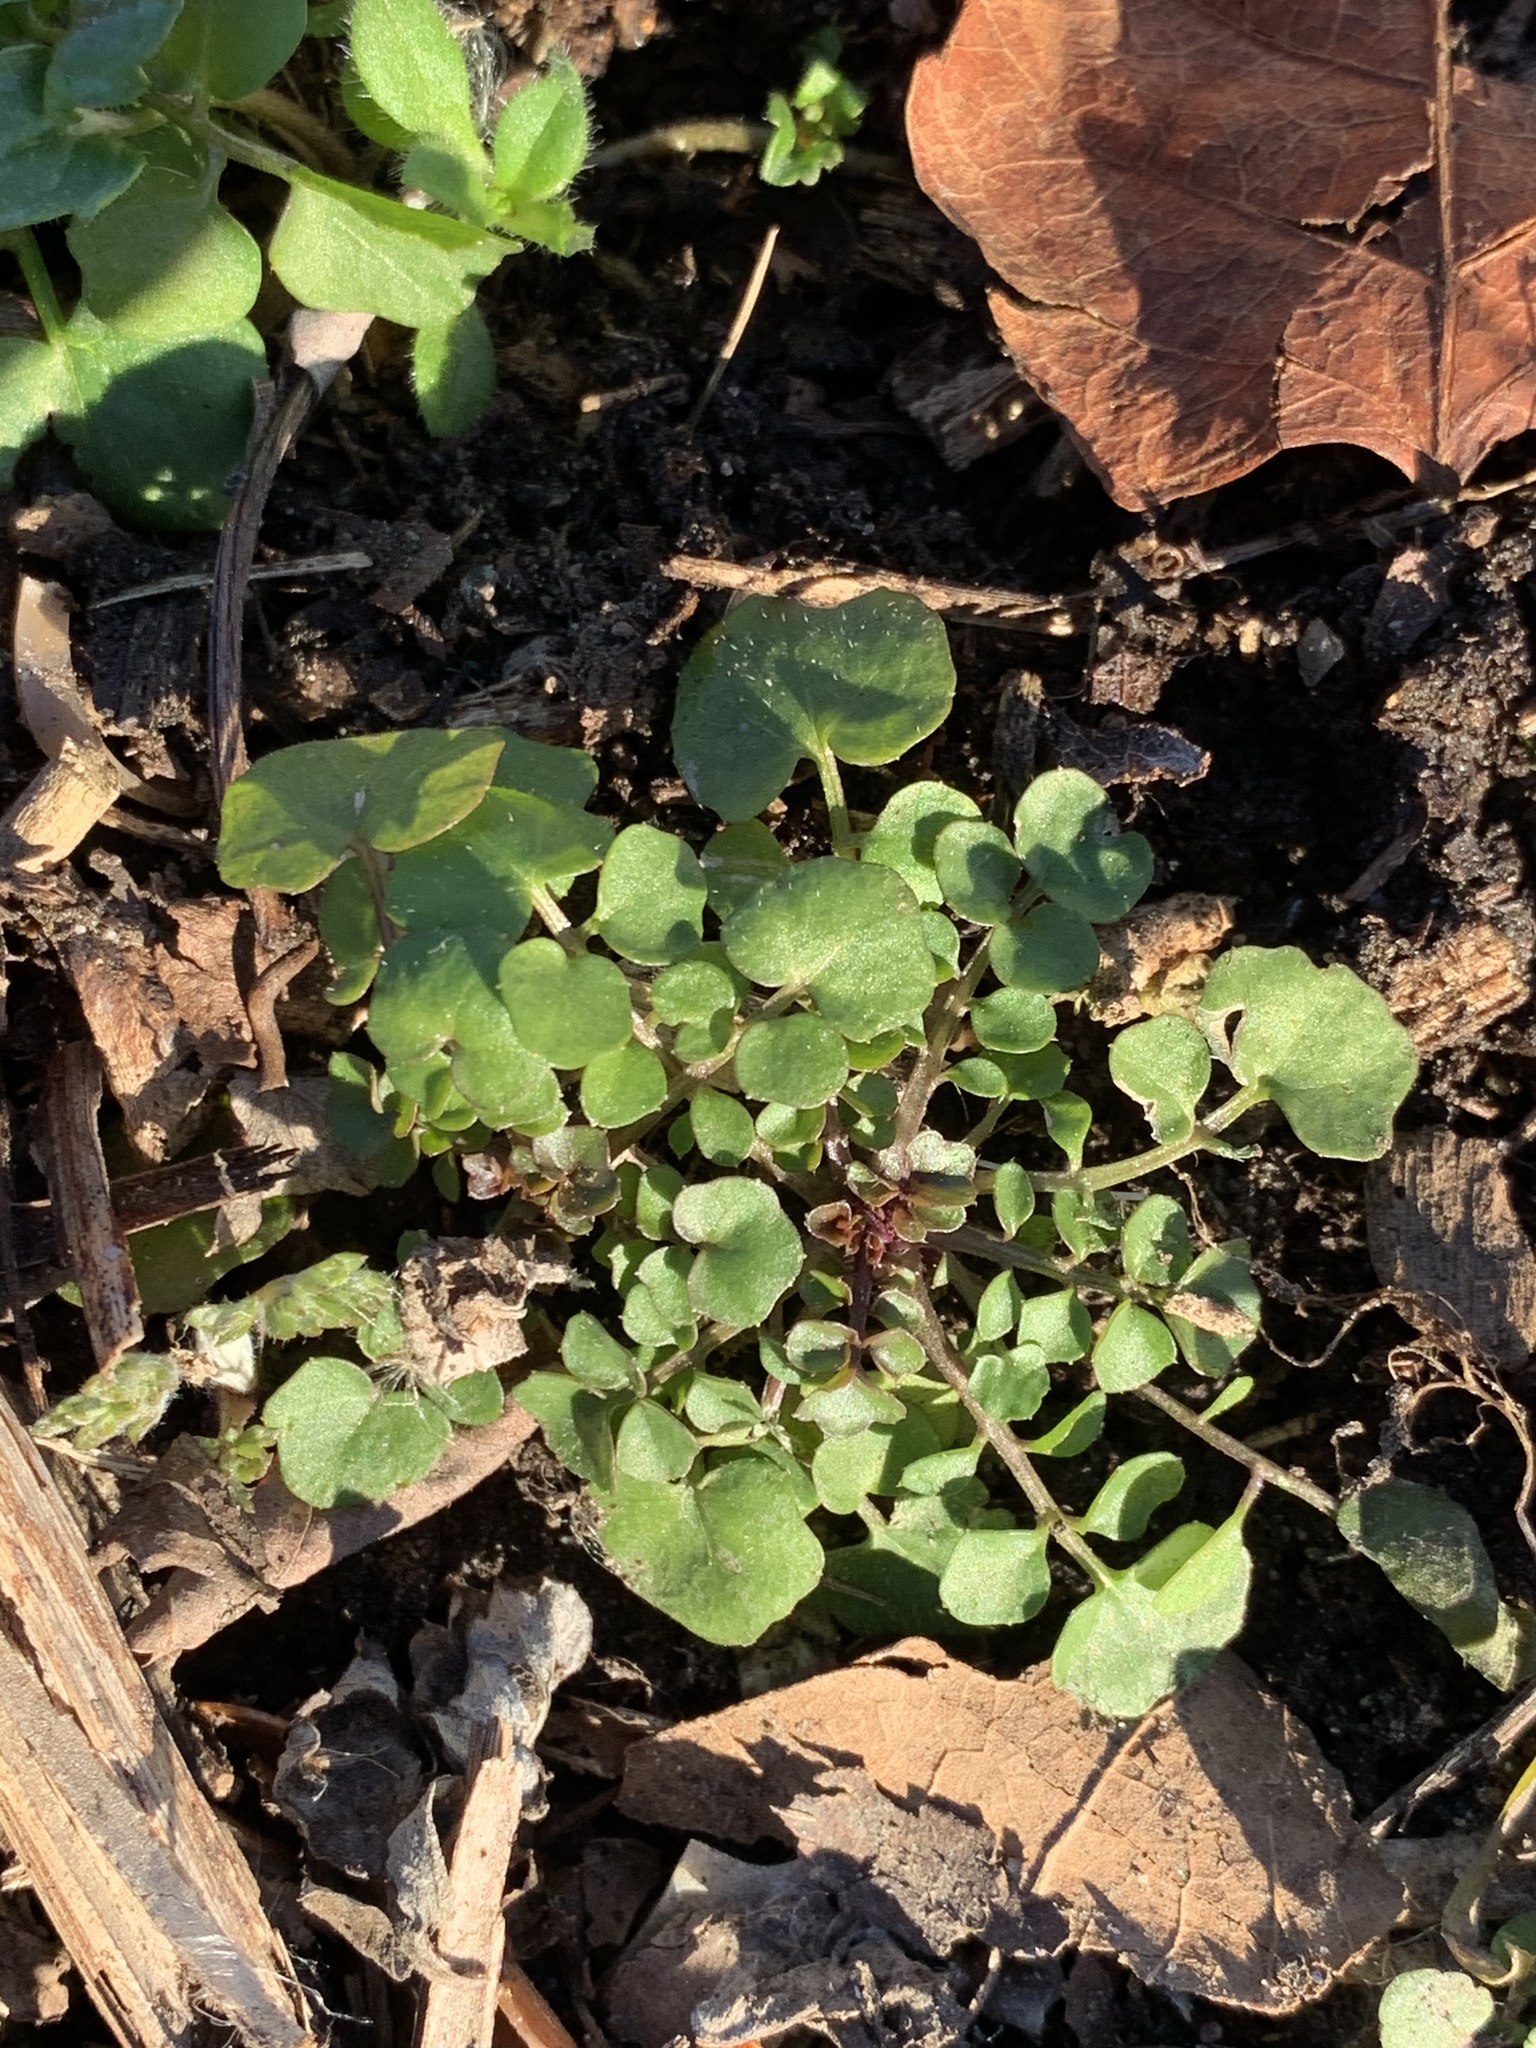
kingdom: Plantae
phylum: Tracheophyta
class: Magnoliopsida
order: Brassicales
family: Brassicaceae
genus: Cardamine
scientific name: Cardamine hirsuta
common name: Hairy bittercress
